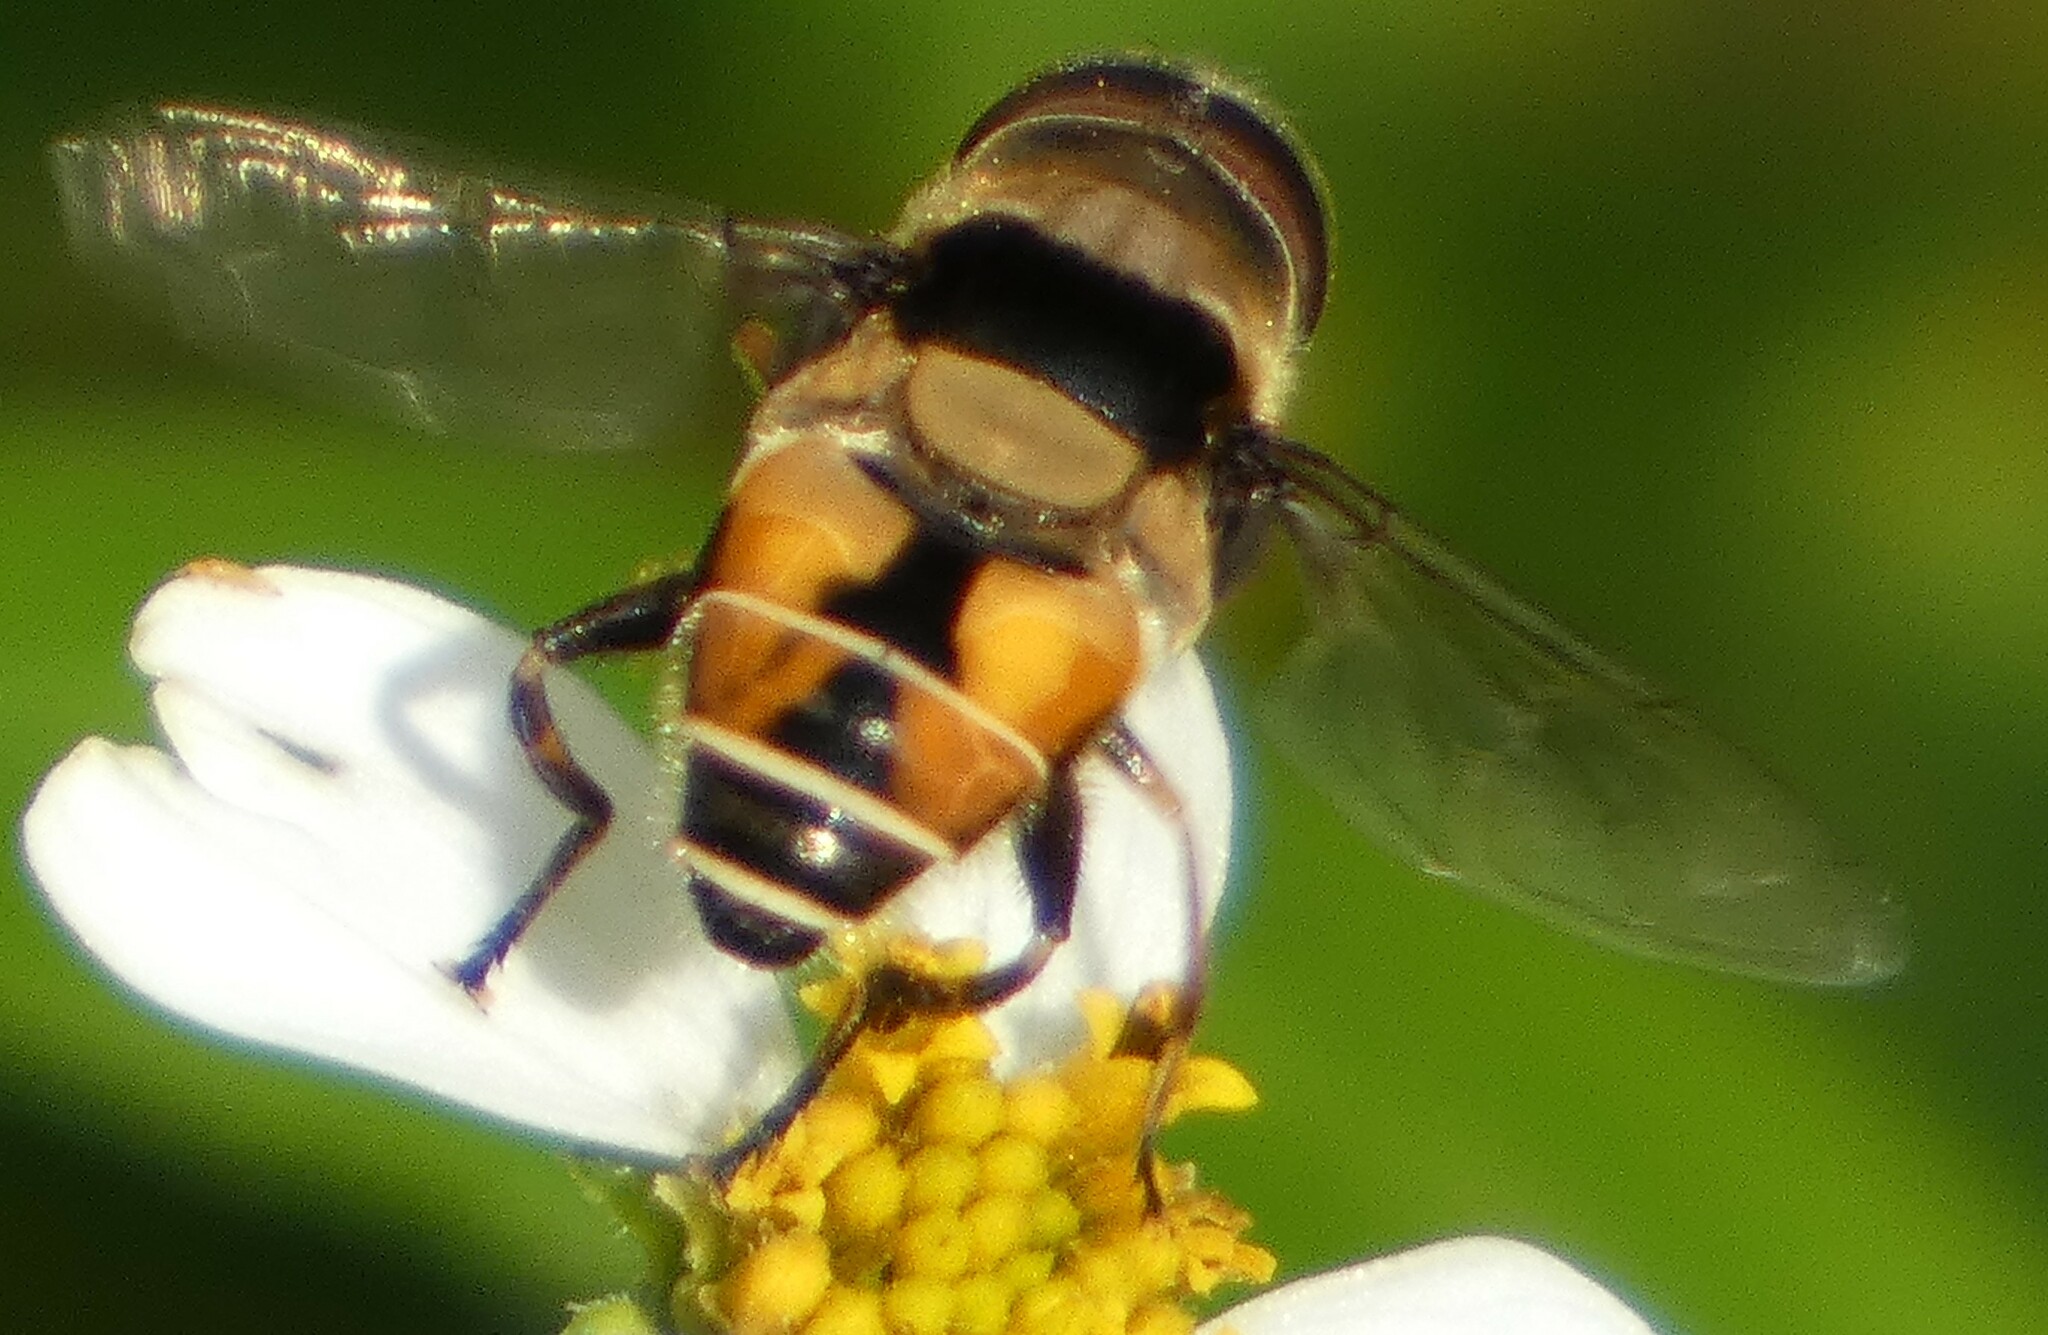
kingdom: Animalia
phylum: Arthropoda
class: Insecta
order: Diptera
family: Syrphidae
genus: Palpada
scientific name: Palpada pusilla
